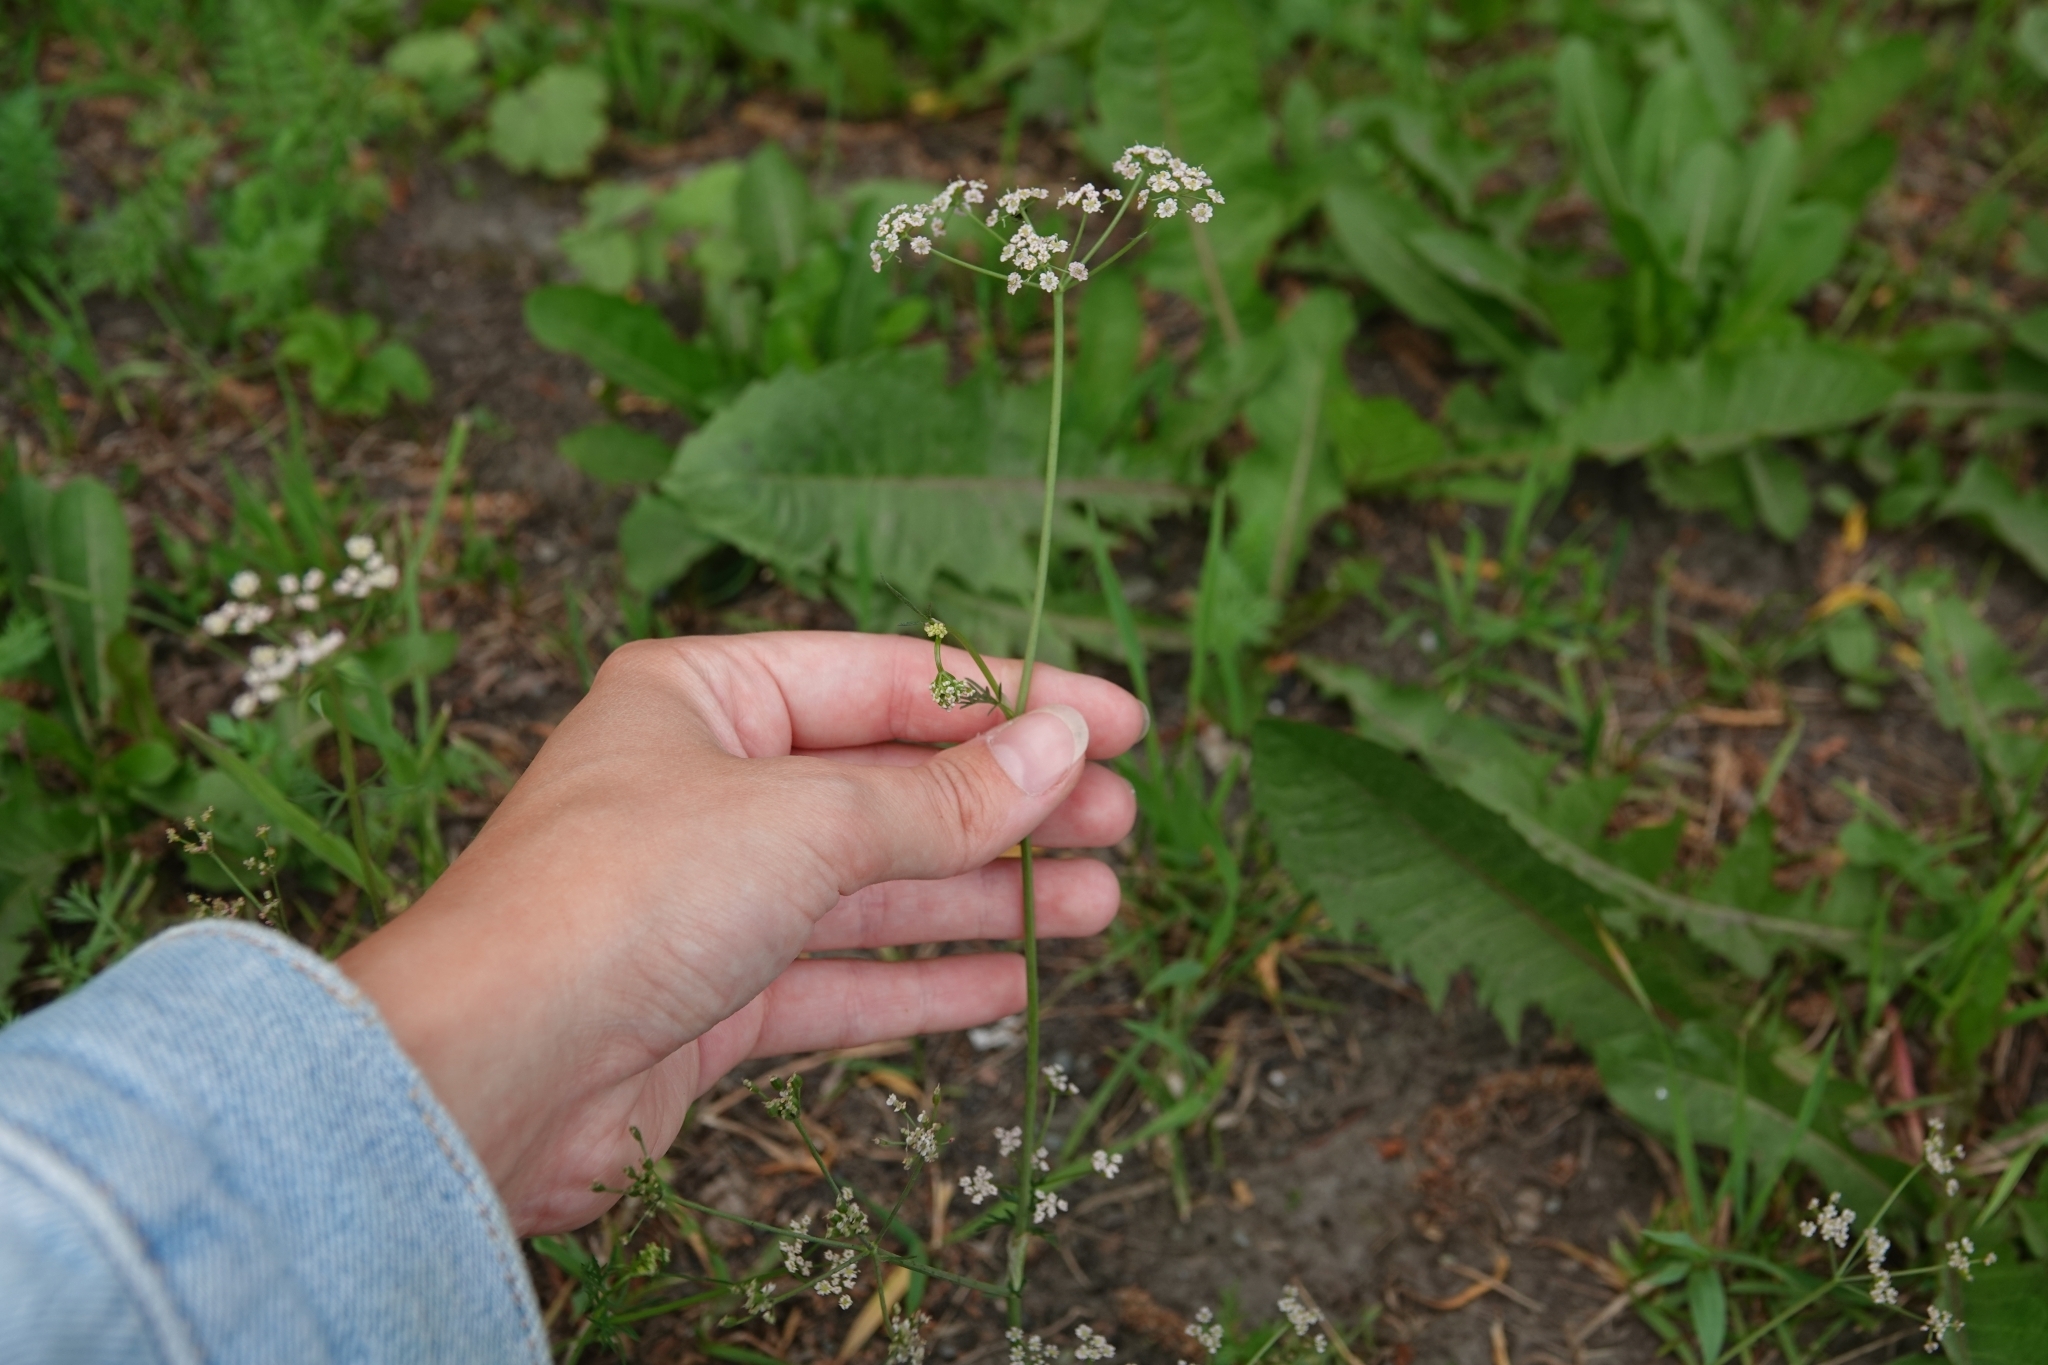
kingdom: Plantae
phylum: Tracheophyta
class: Magnoliopsida
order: Apiales
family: Apiaceae
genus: Carum
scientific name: Carum carvi
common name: Caraway
